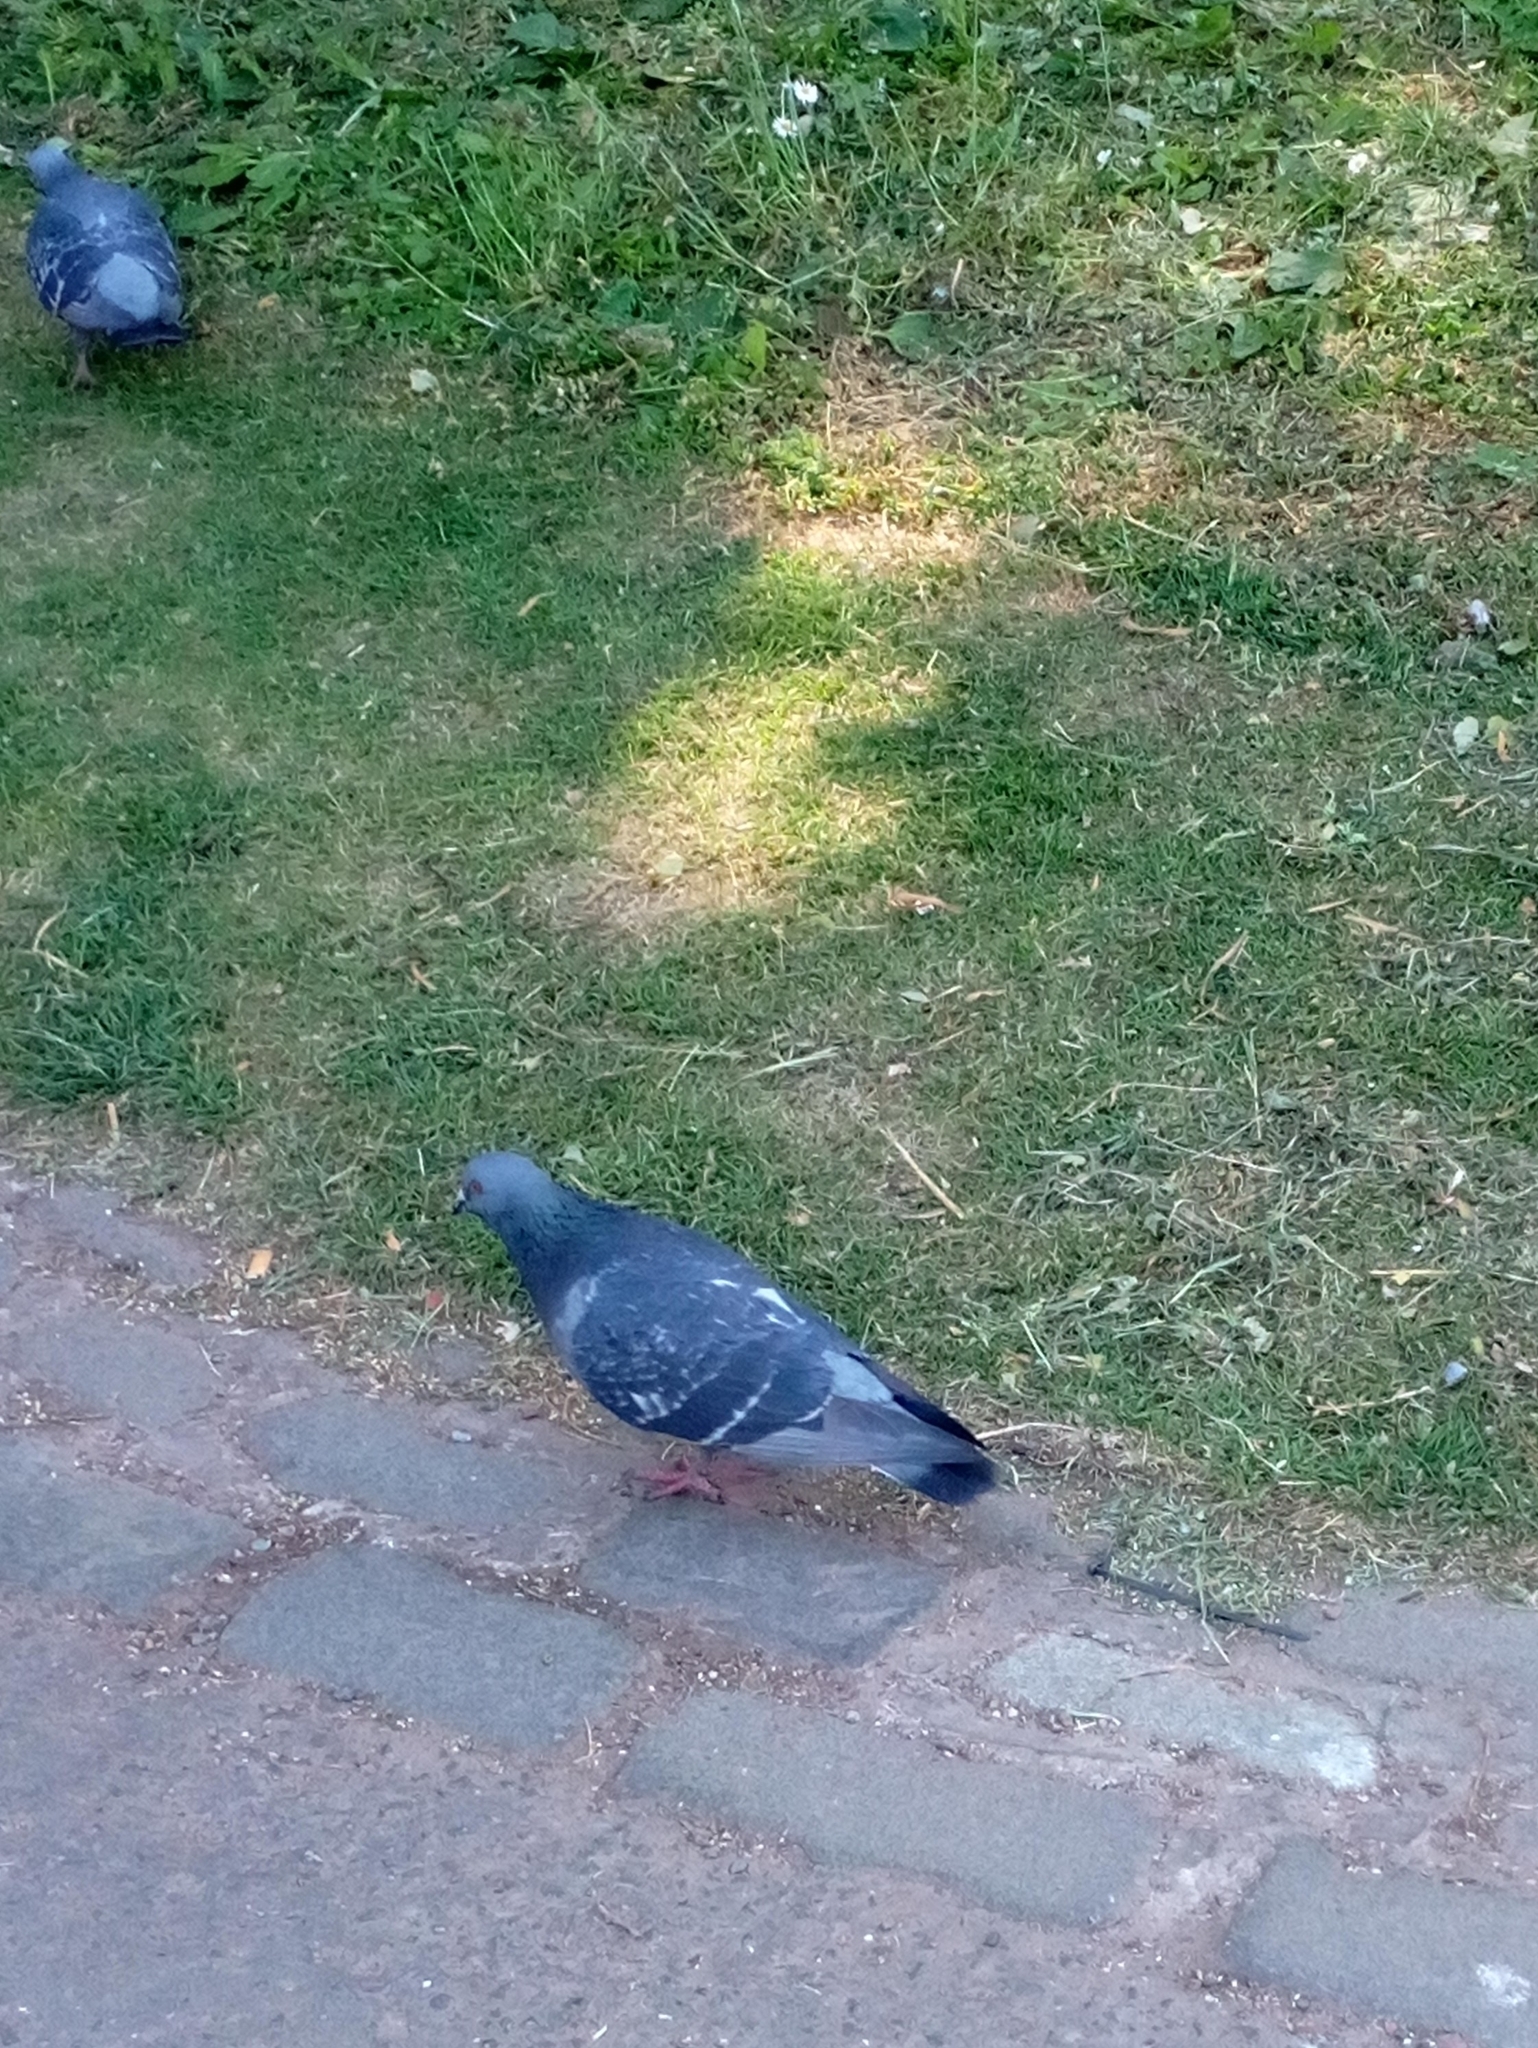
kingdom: Animalia
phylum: Chordata
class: Aves
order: Columbiformes
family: Columbidae
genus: Columba
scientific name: Columba livia
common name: Rock pigeon
